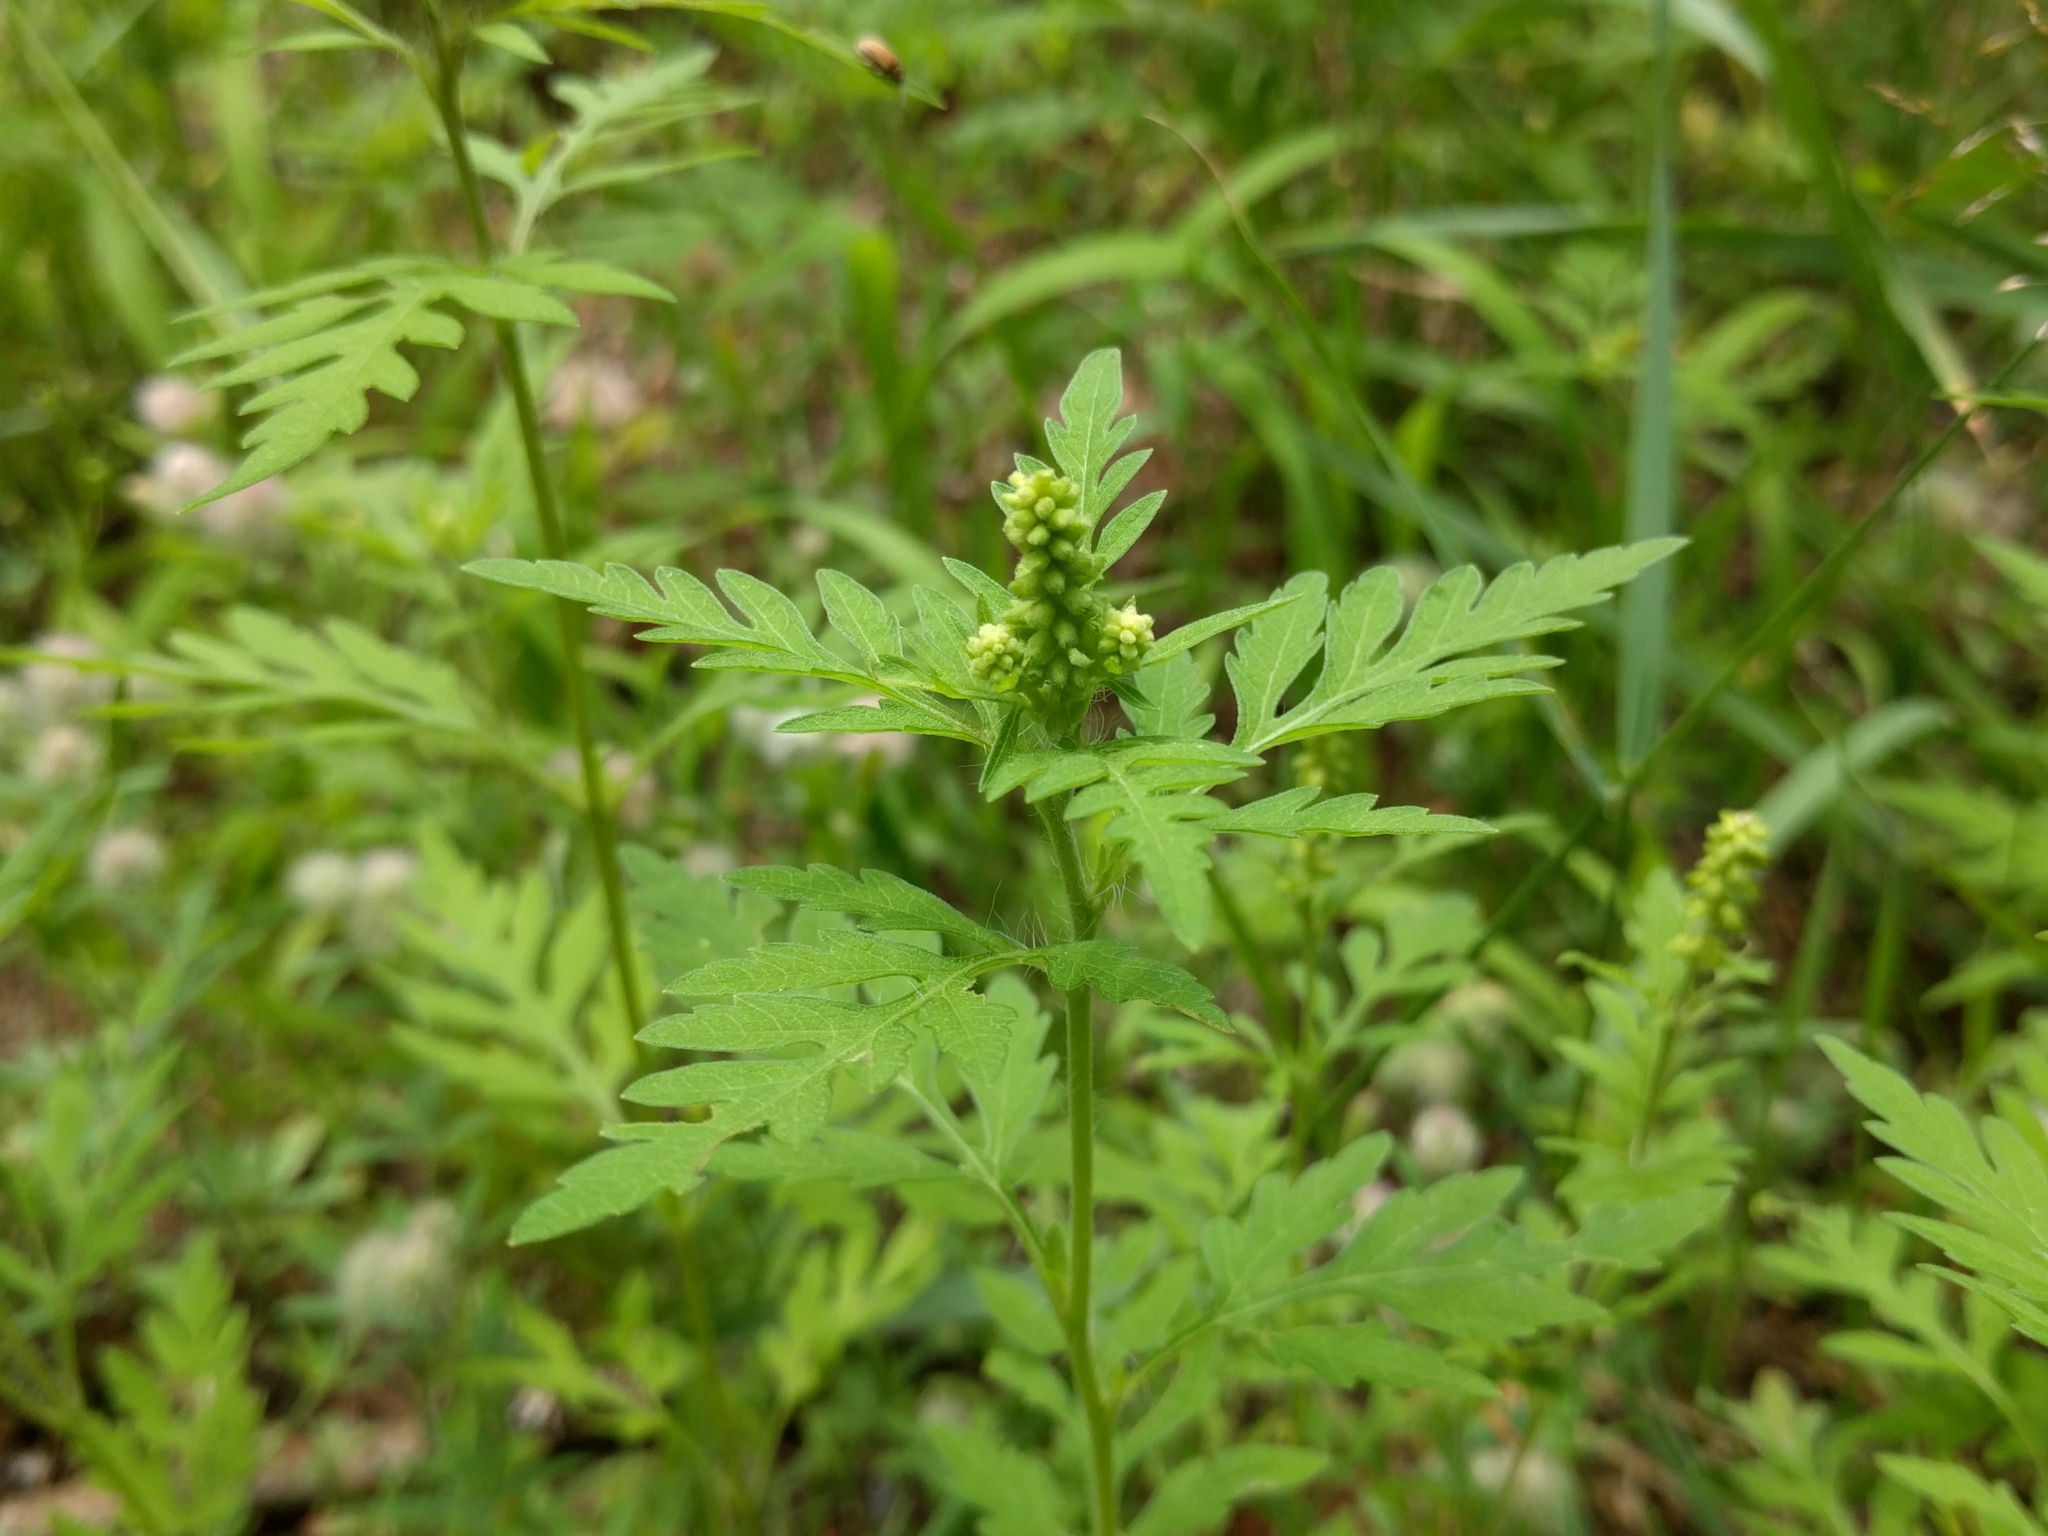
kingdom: Plantae
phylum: Tracheophyta
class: Magnoliopsida
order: Asterales
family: Asteraceae
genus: Ambrosia
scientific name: Ambrosia artemisiifolia
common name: Annual ragweed
